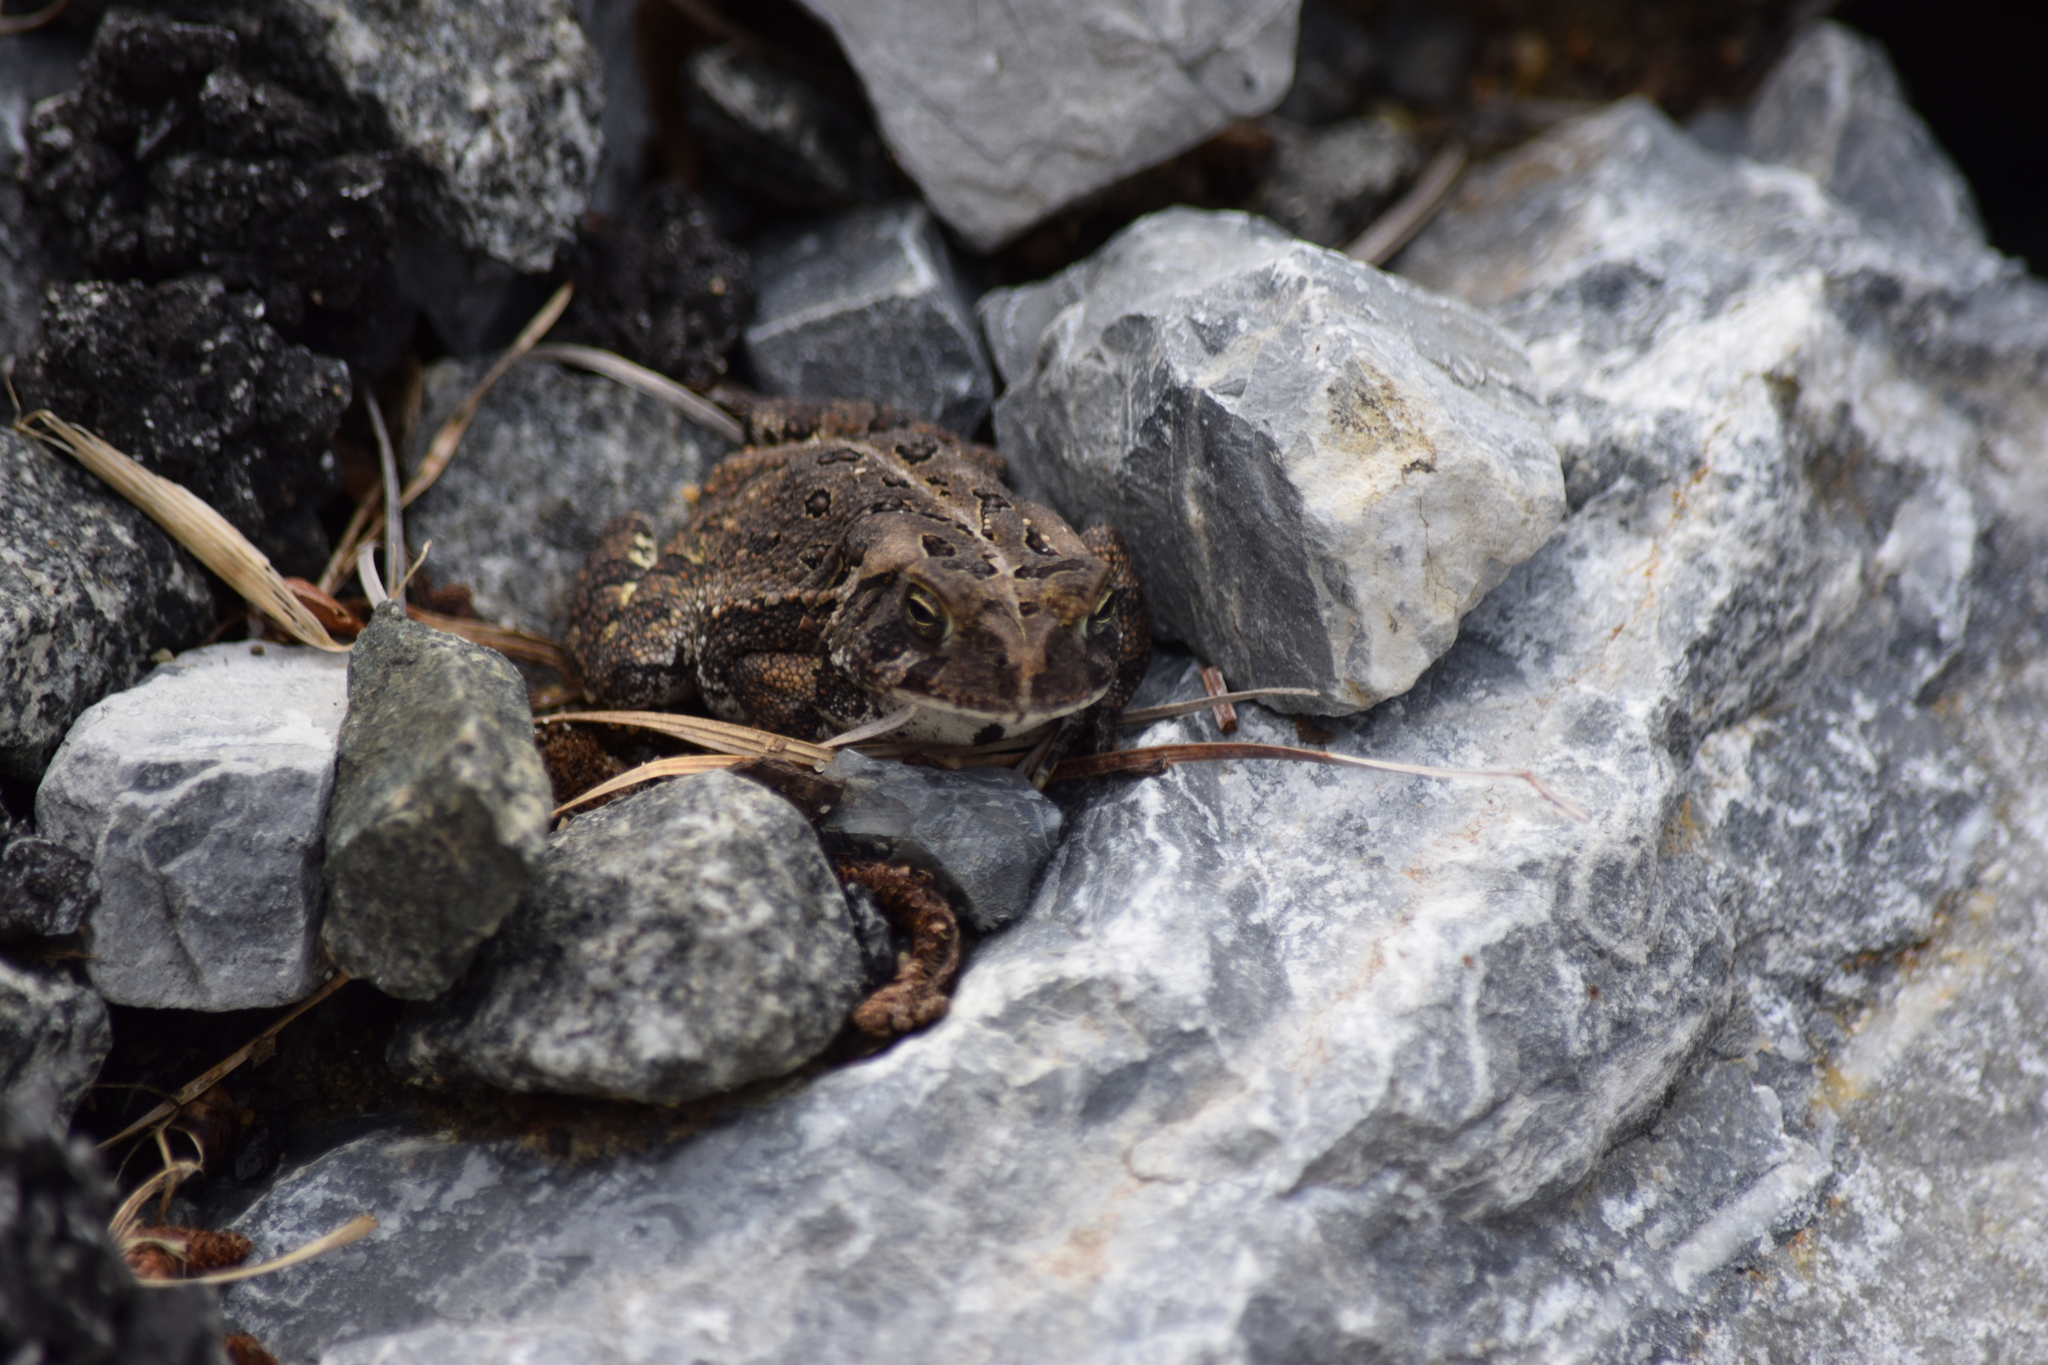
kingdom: Animalia
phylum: Chordata
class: Amphibia
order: Anura
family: Bufonidae
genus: Anaxyrus
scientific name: Anaxyrus fowleri
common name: Fowler's toad
